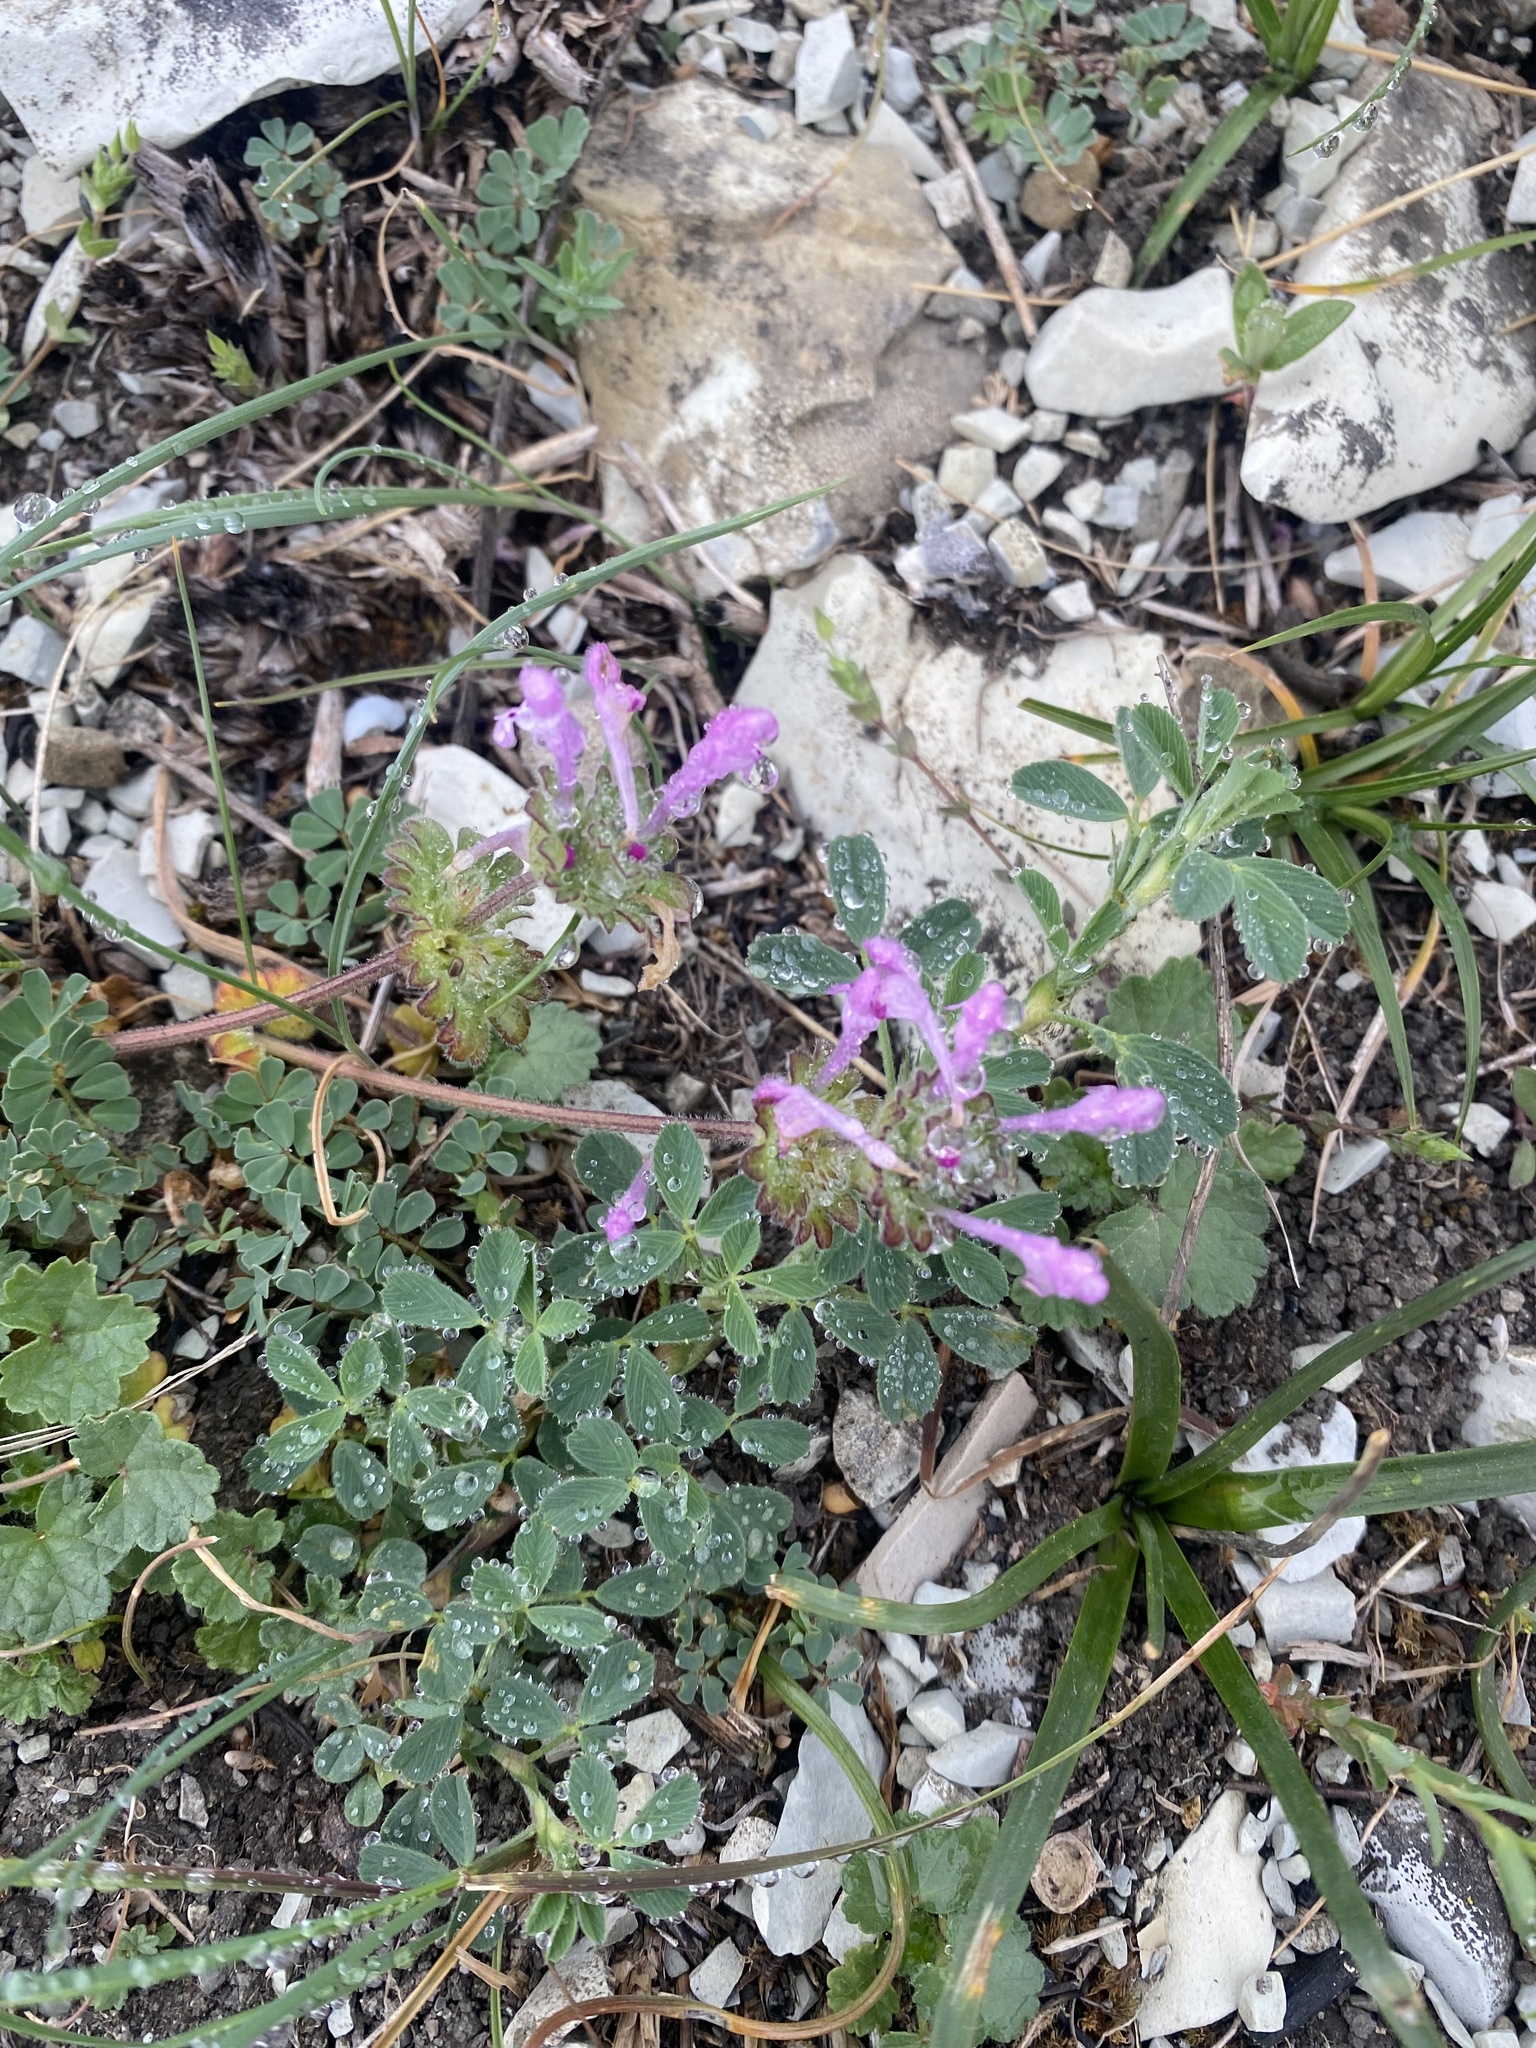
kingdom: Plantae
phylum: Tracheophyta
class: Magnoliopsida
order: Lamiales
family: Lamiaceae
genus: Lamium
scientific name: Lamium amplexicaule
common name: Henbit dead-nettle
